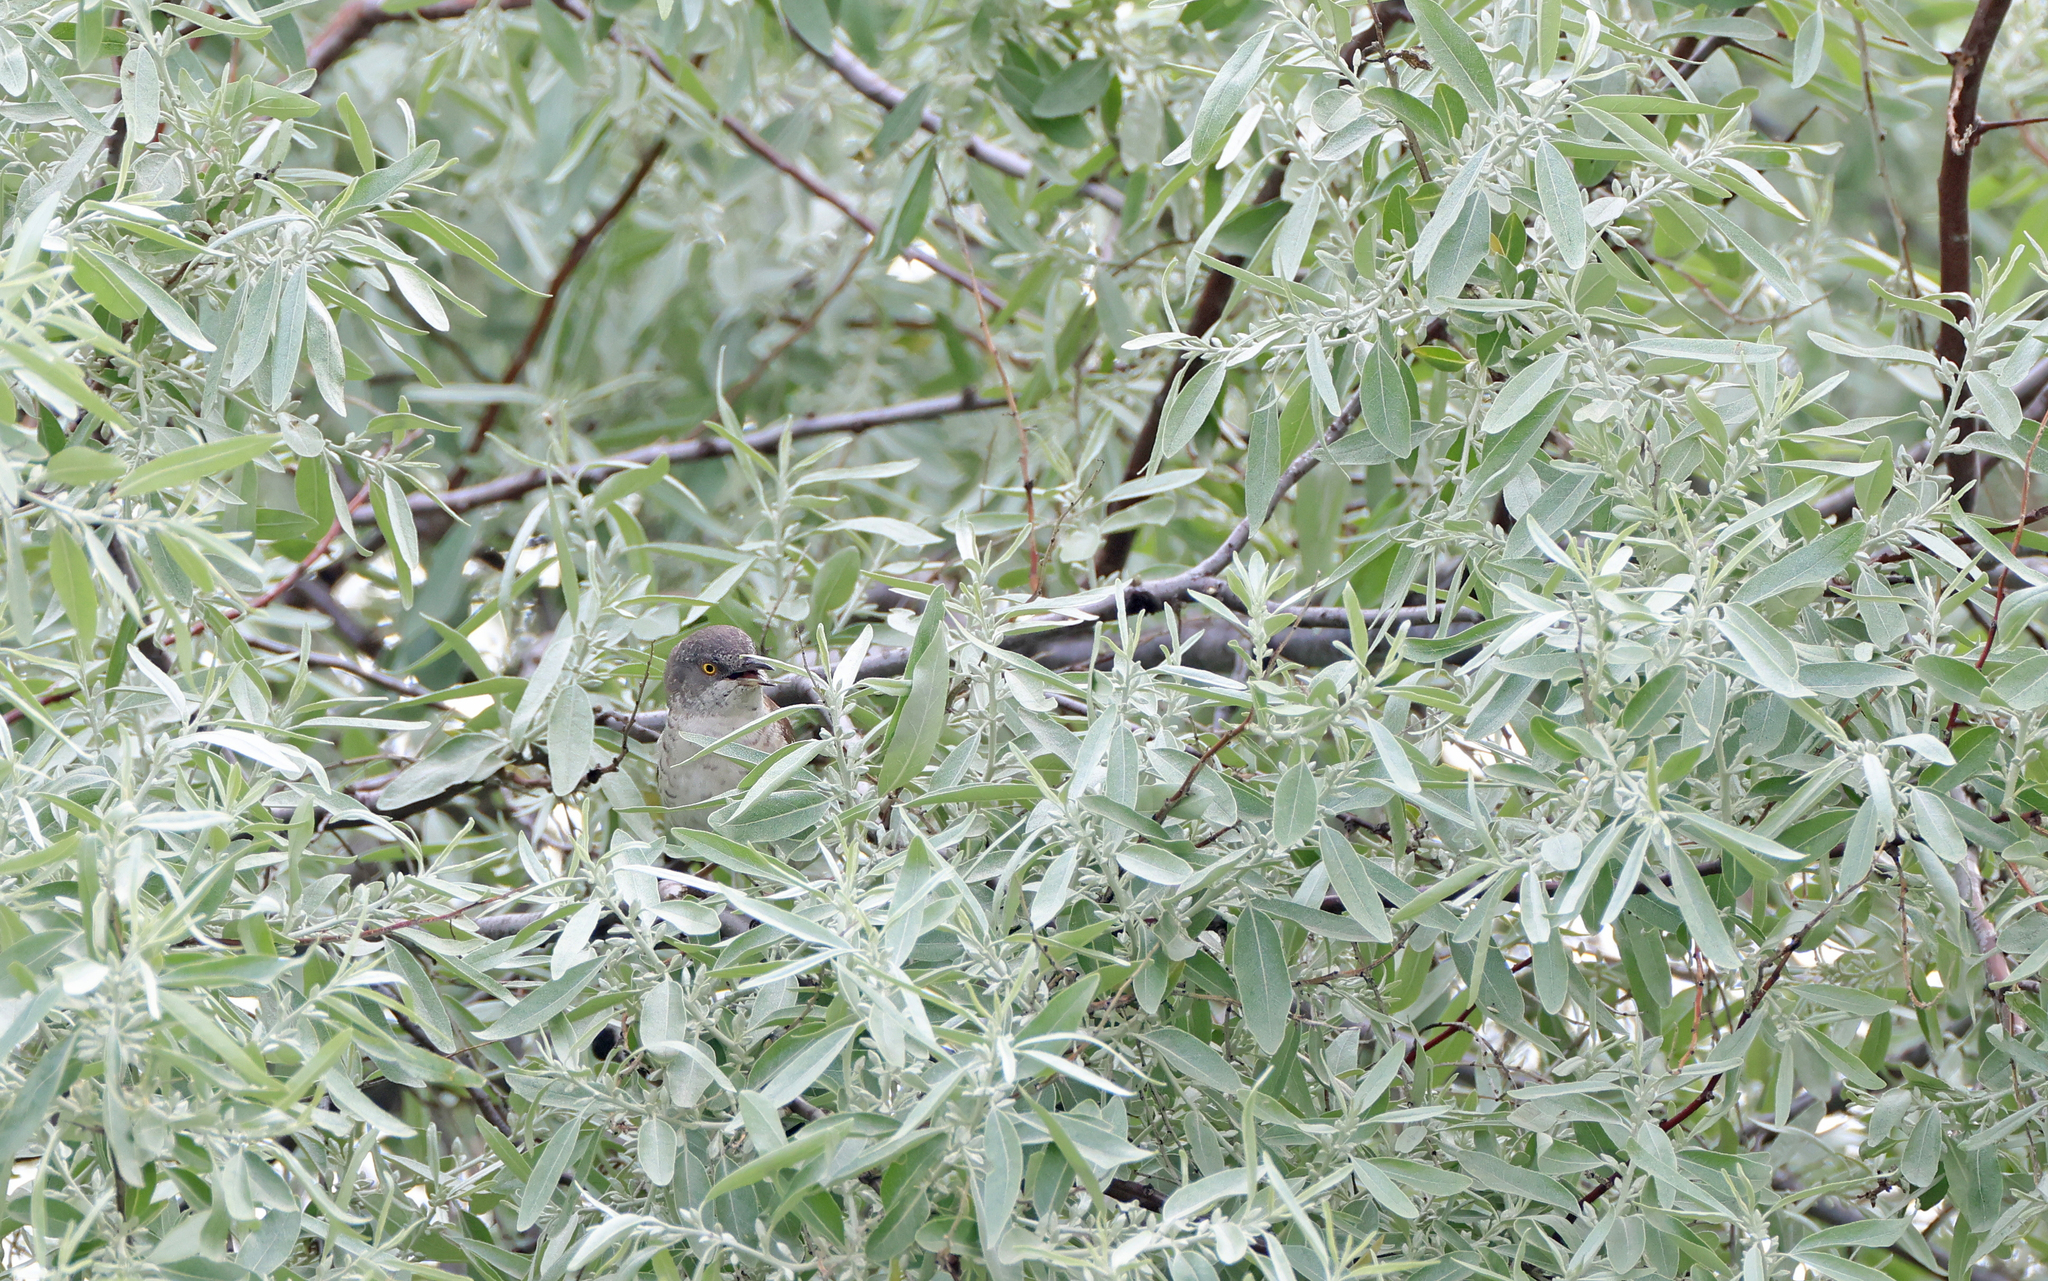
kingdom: Animalia
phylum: Chordata
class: Aves
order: Passeriformes
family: Sylviidae
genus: Sylvia
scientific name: Sylvia nisoria
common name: Barred warbler
